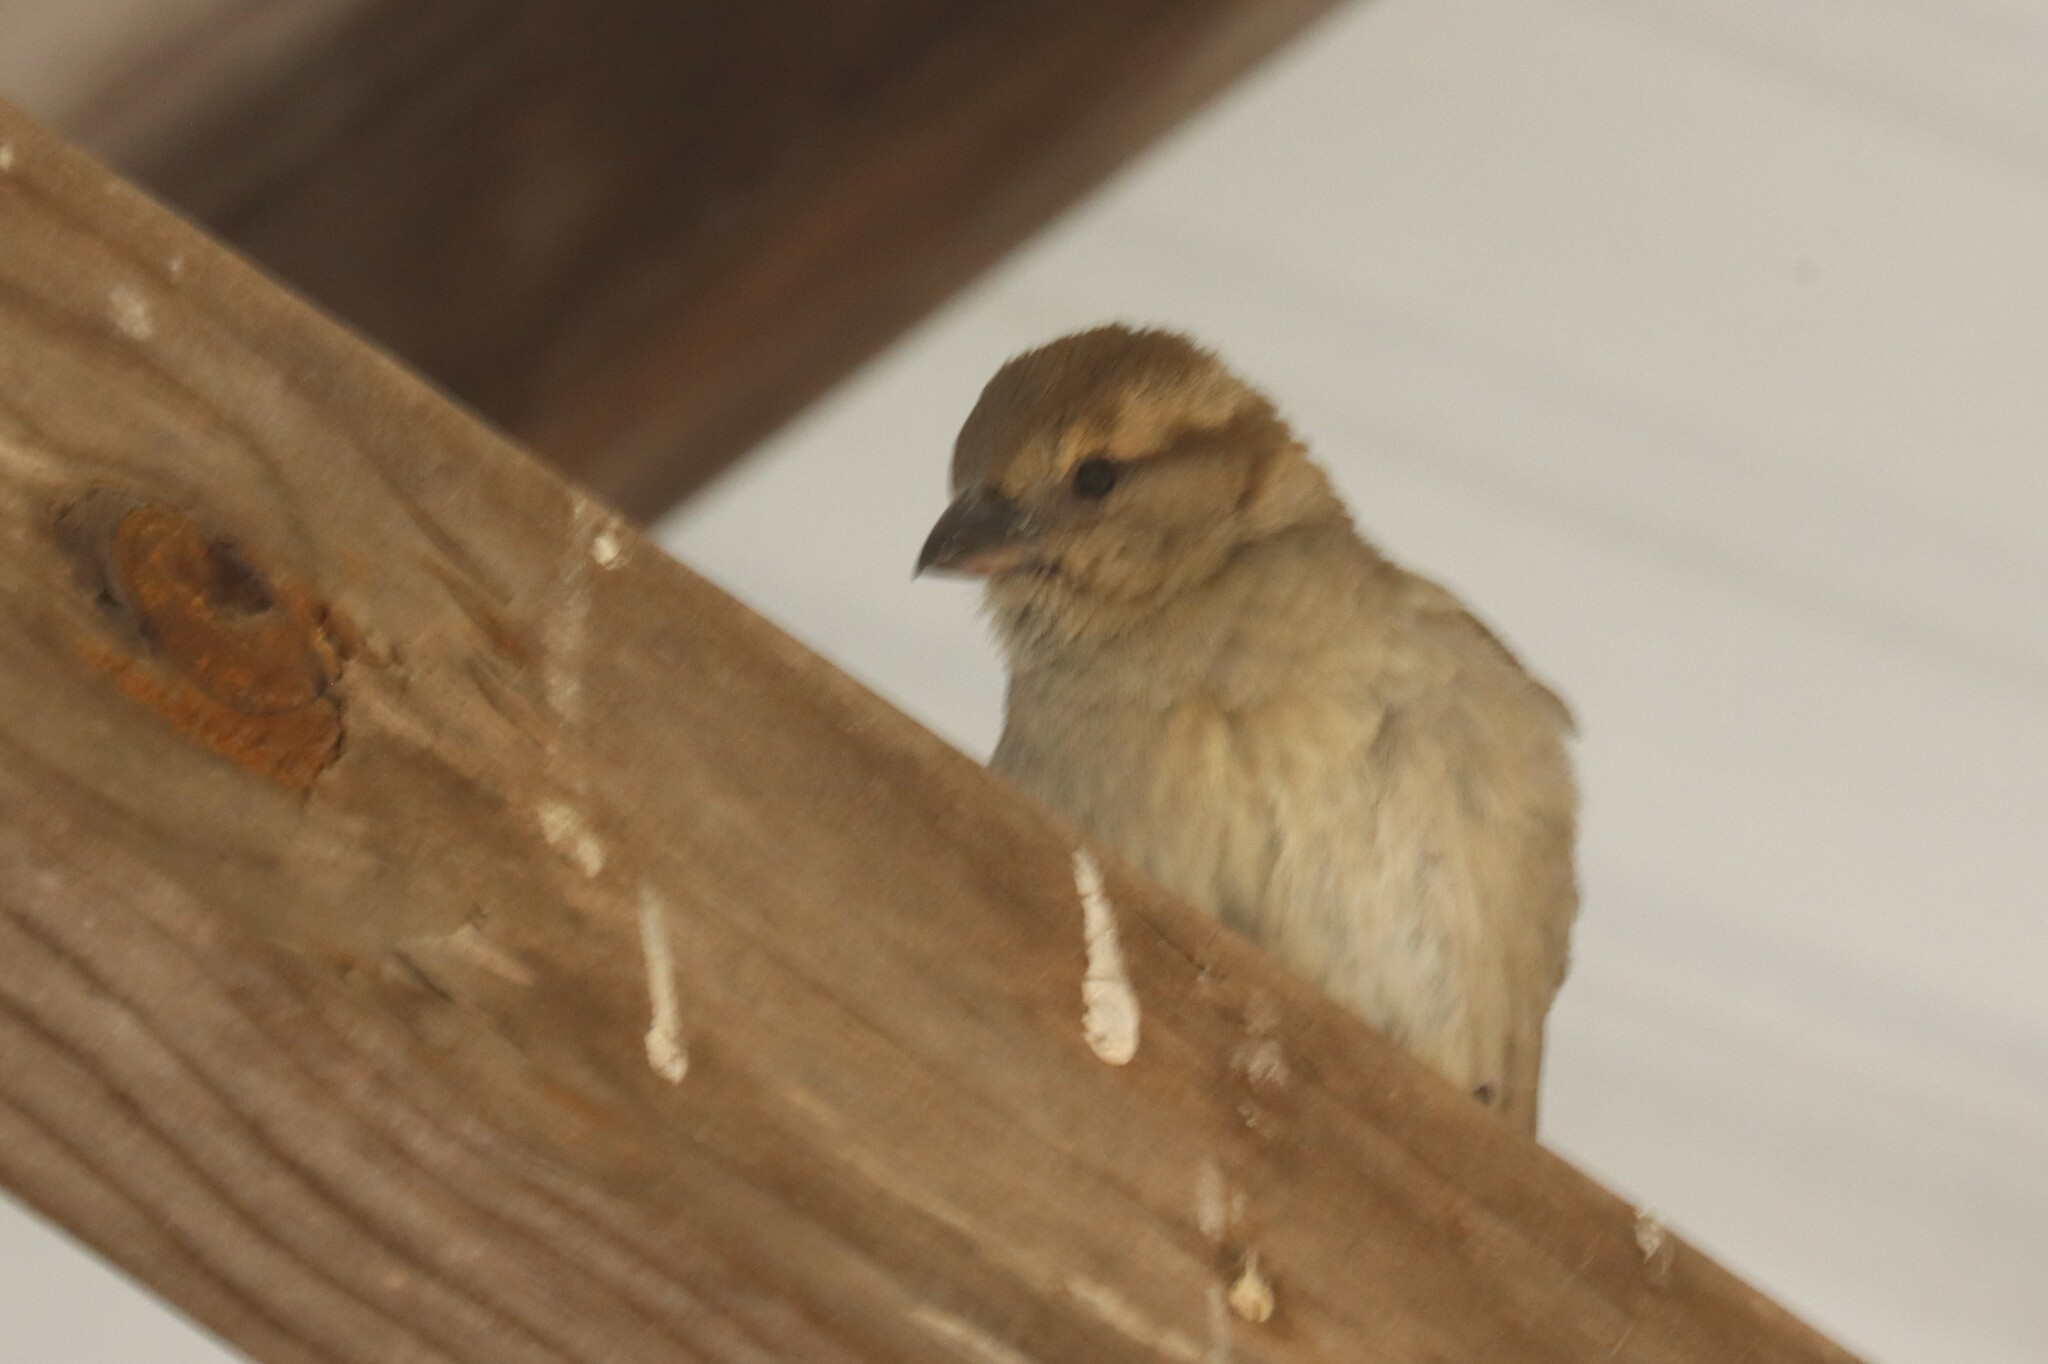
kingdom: Animalia
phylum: Chordata
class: Aves
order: Passeriformes
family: Passeridae
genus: Passer
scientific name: Passer domesticus
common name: House sparrow
